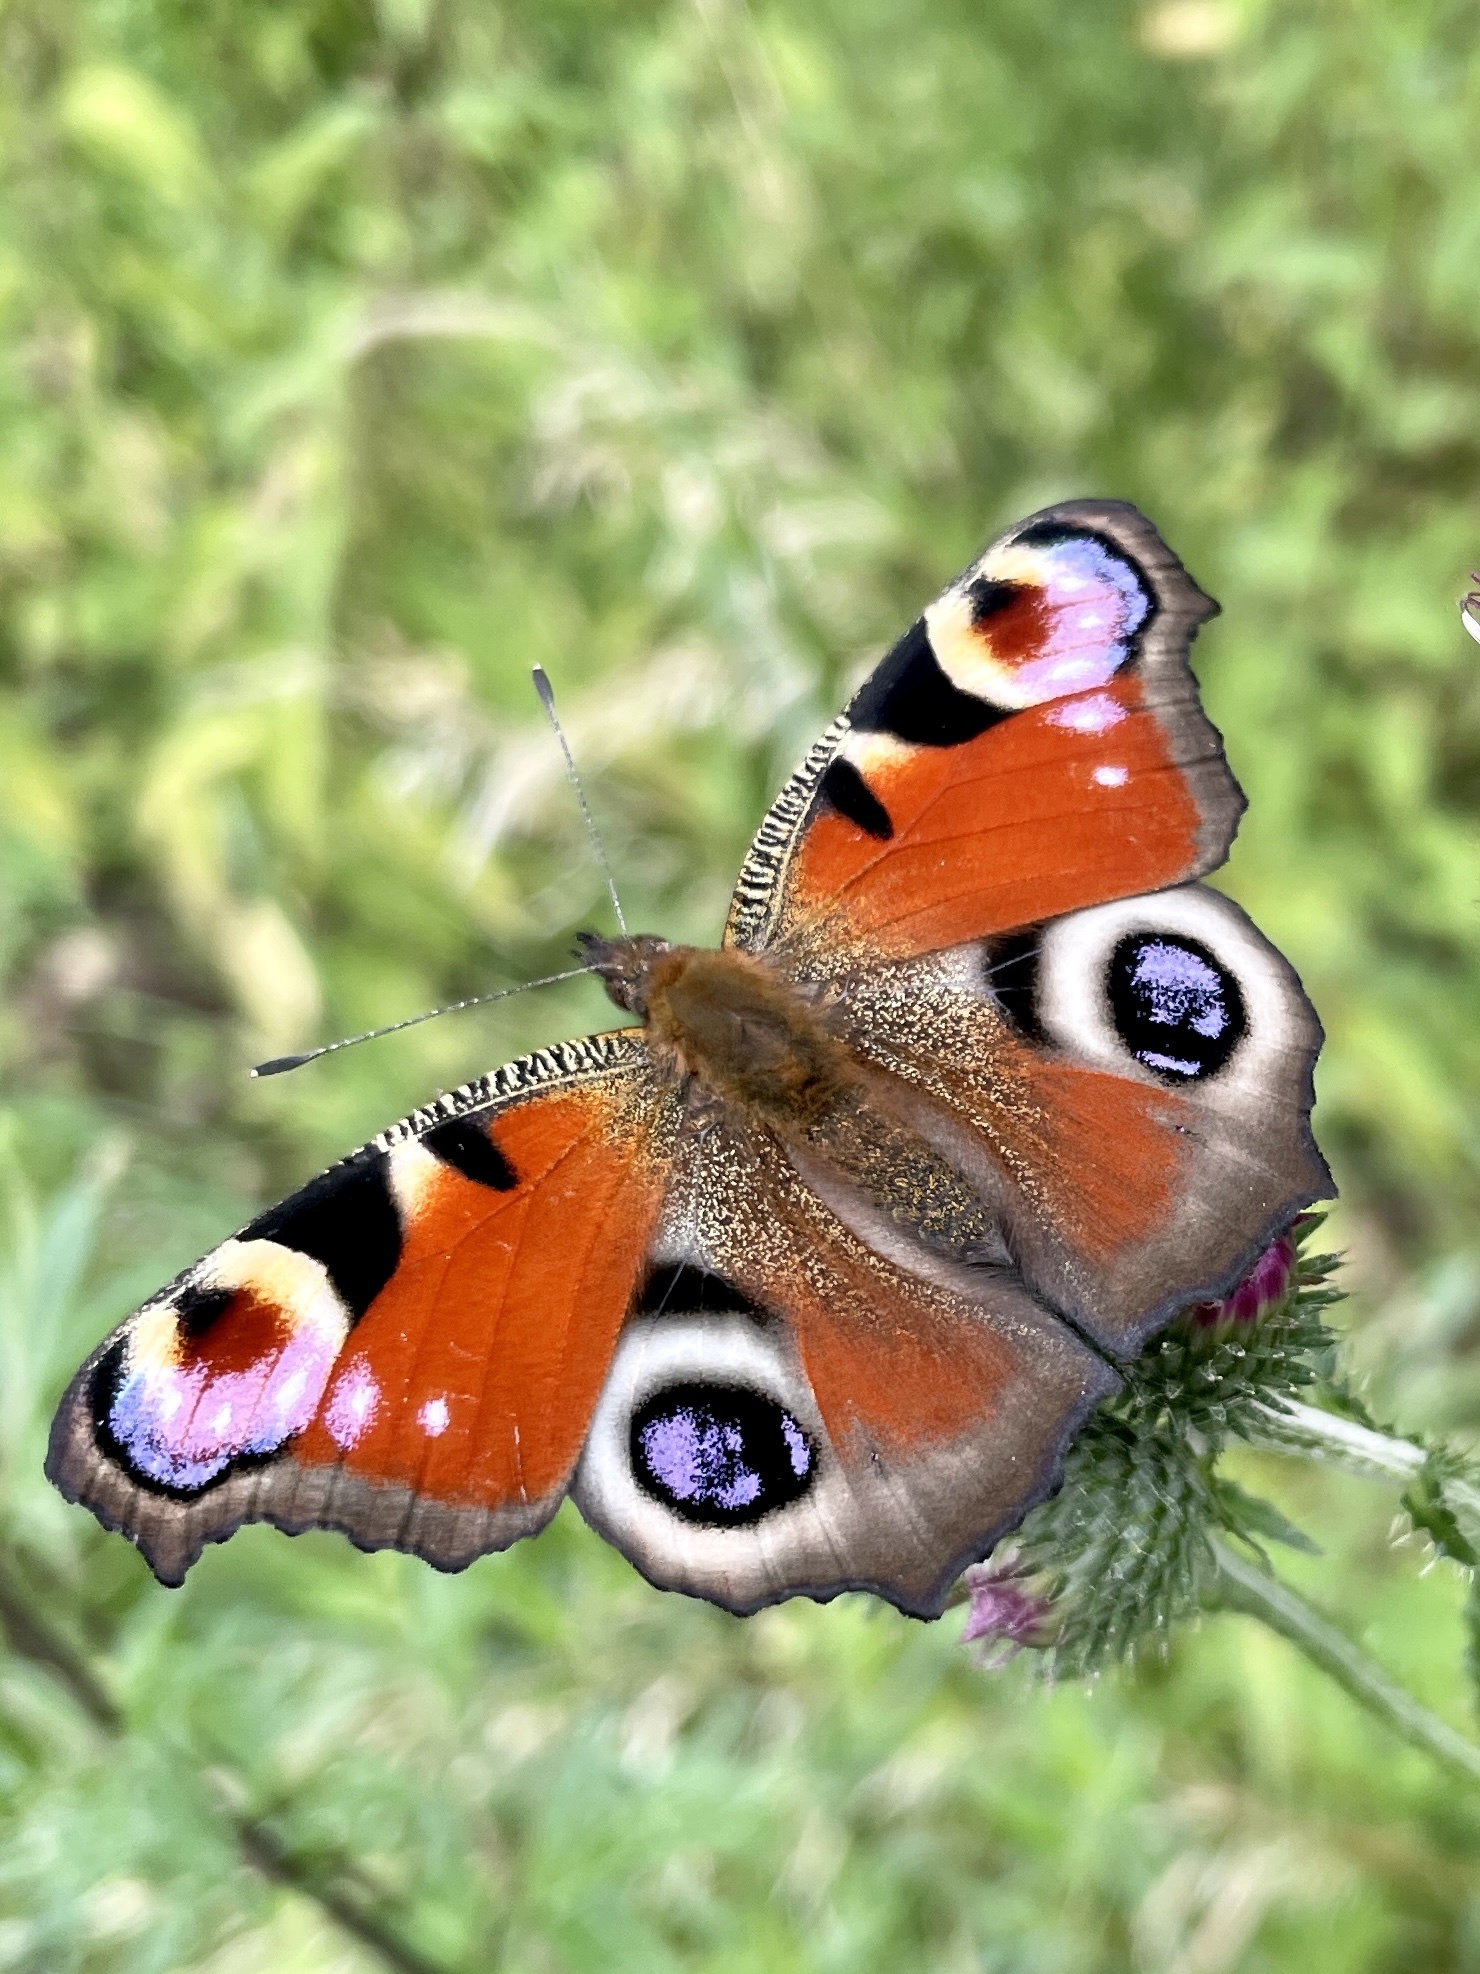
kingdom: Animalia
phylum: Arthropoda
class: Insecta
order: Lepidoptera
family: Nymphalidae
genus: Aglais
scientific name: Aglais io
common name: Peacock
